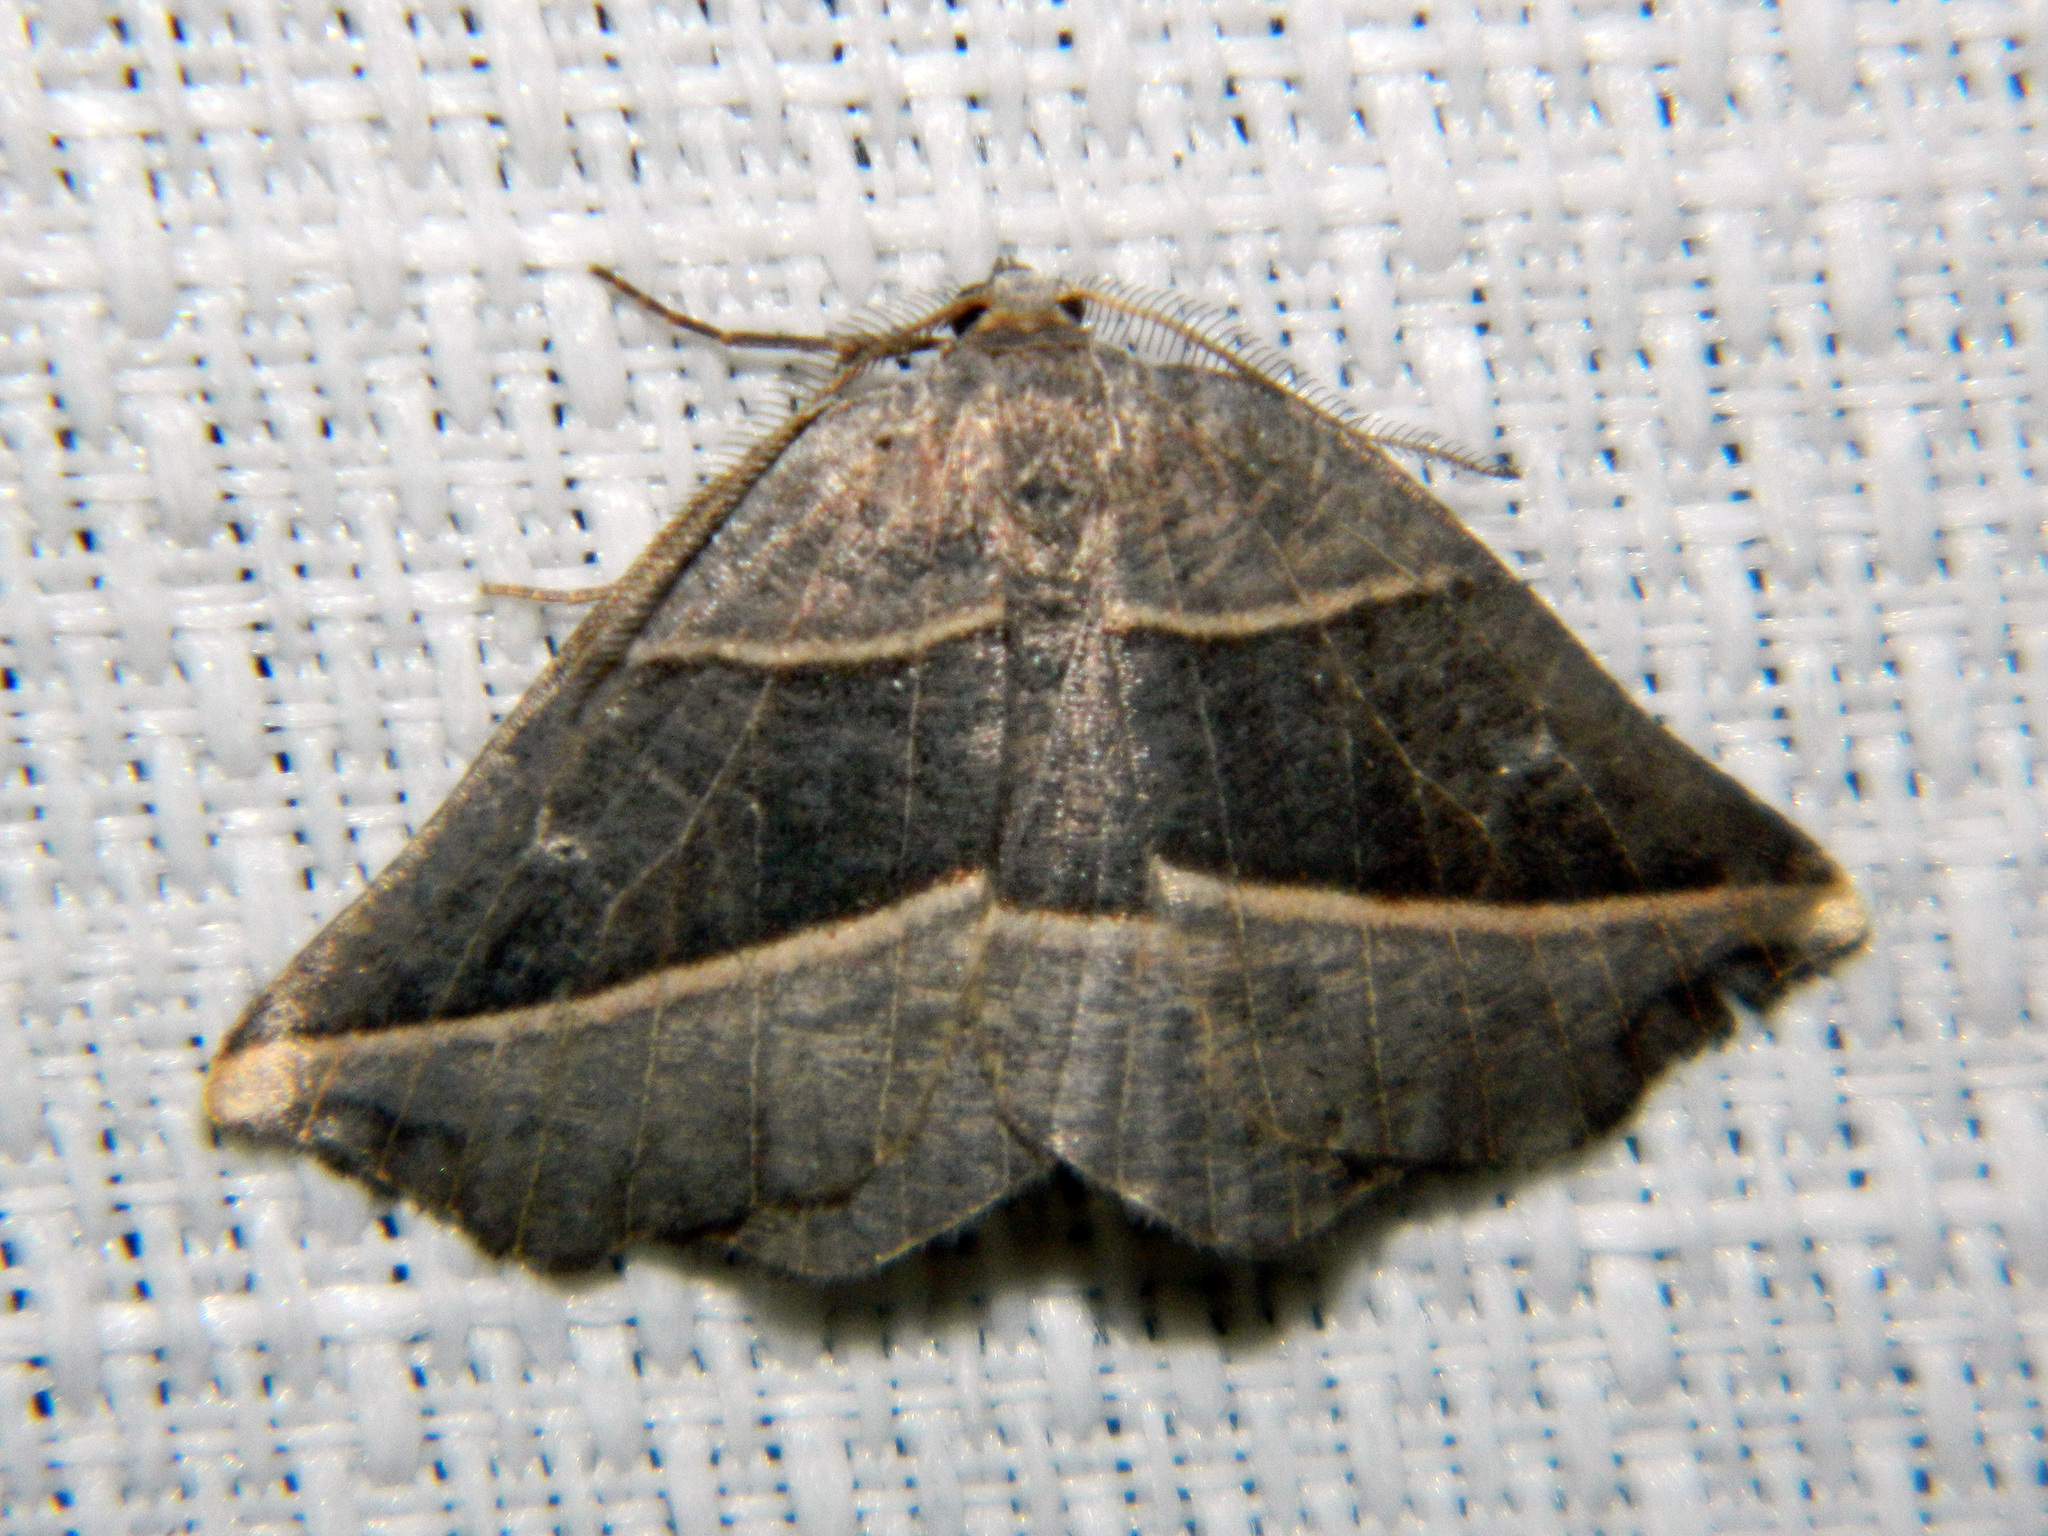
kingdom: Animalia
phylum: Arthropoda
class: Insecta
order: Lepidoptera
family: Geometridae
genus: Metanema
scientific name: Metanema determinata
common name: Dark metanema
